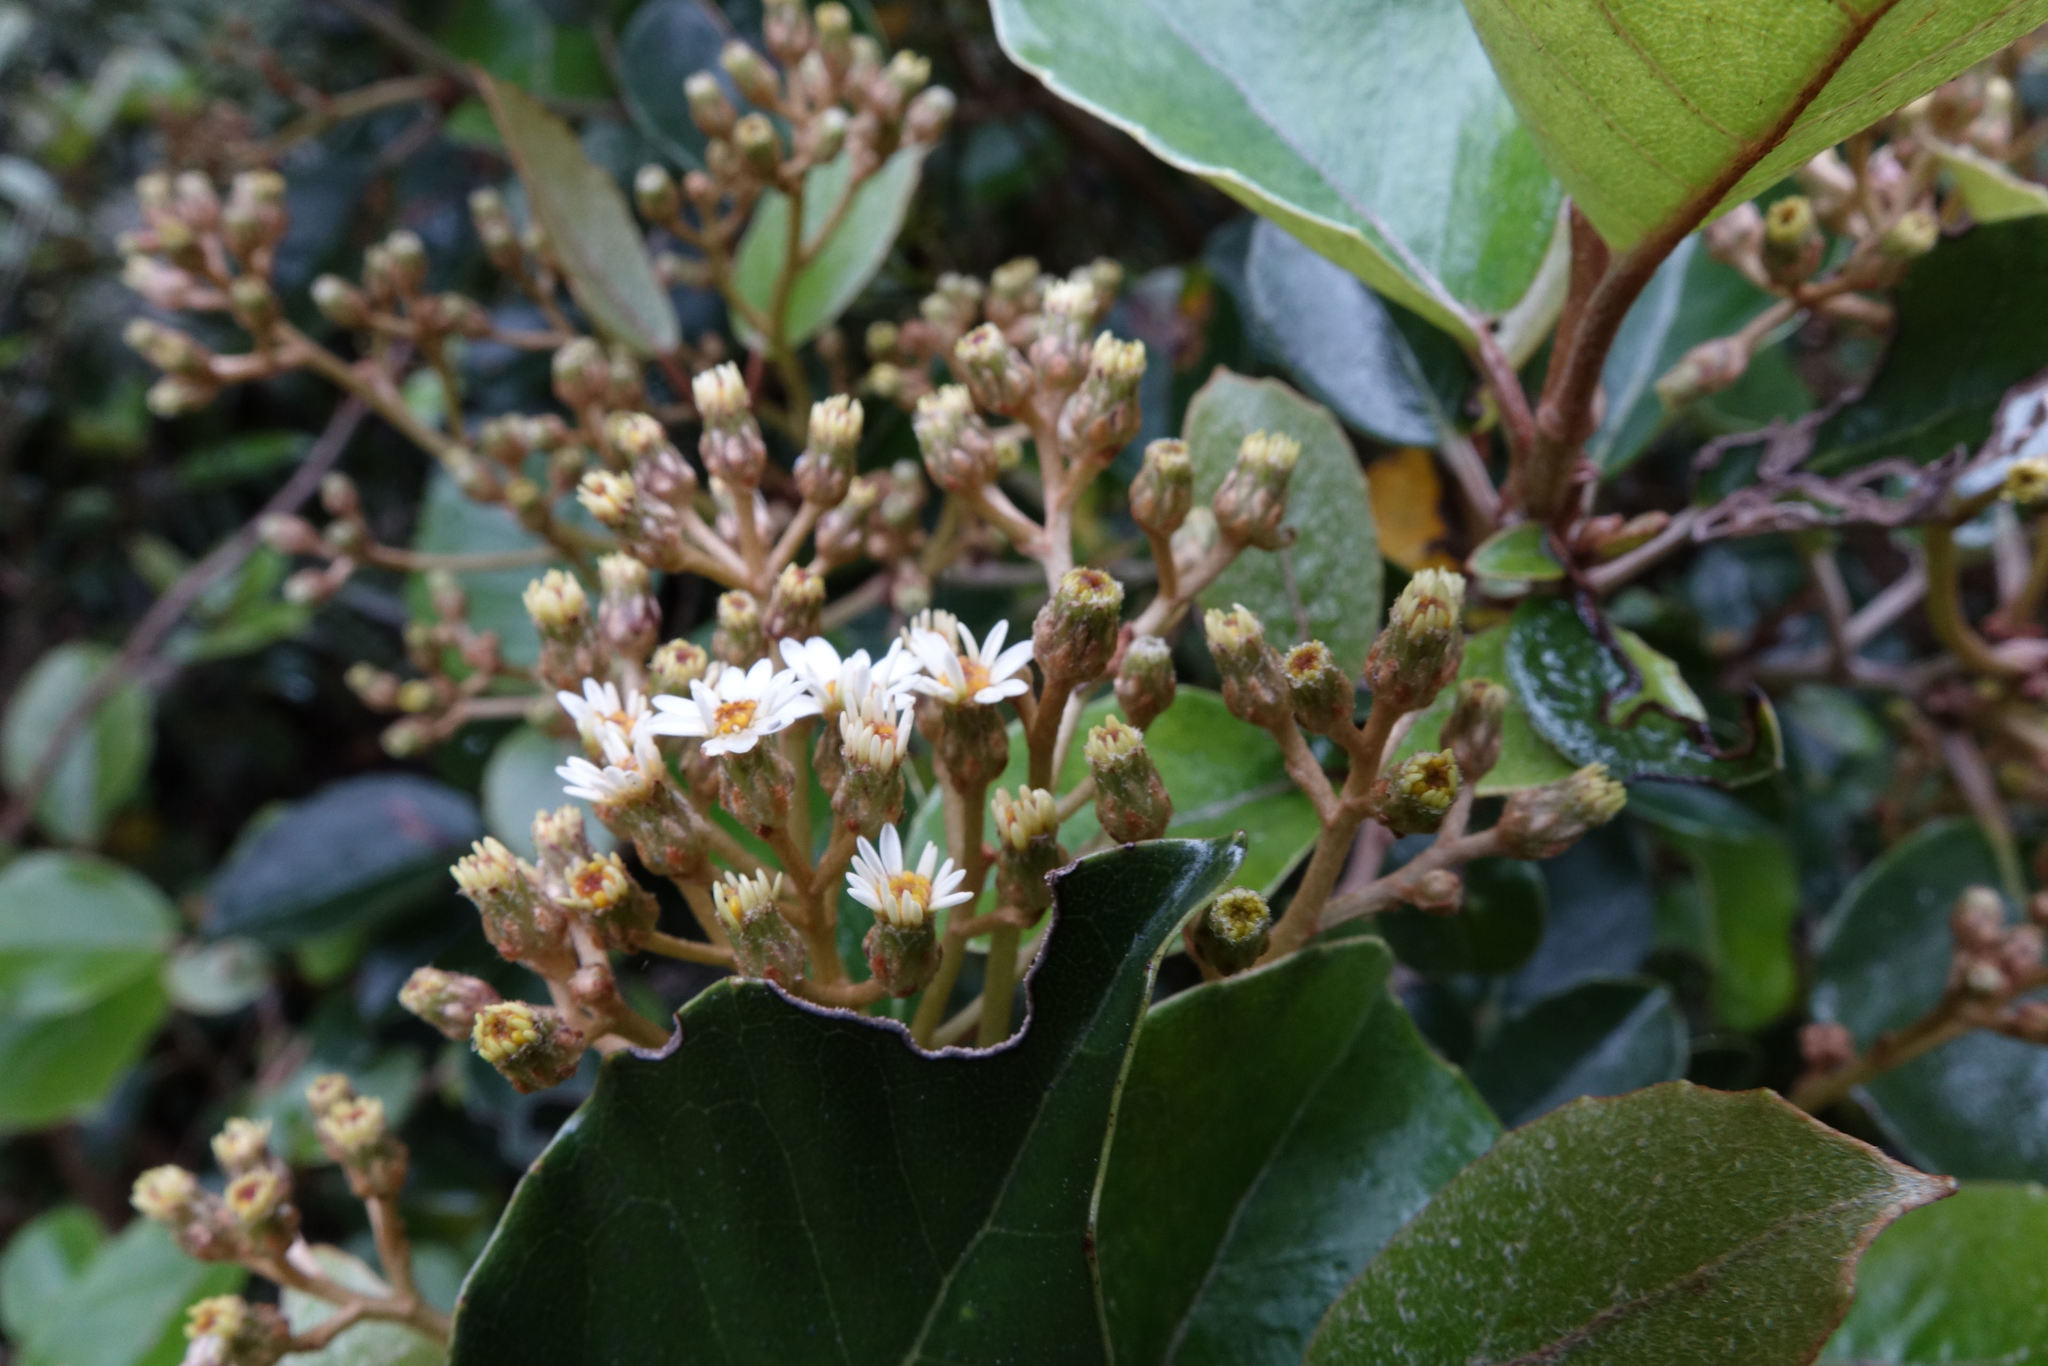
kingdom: Plantae
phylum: Tracheophyta
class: Magnoliopsida
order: Asterales
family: Asteraceae
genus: Olearia
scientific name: Olearia arborescens
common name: Glossy tree daisy
